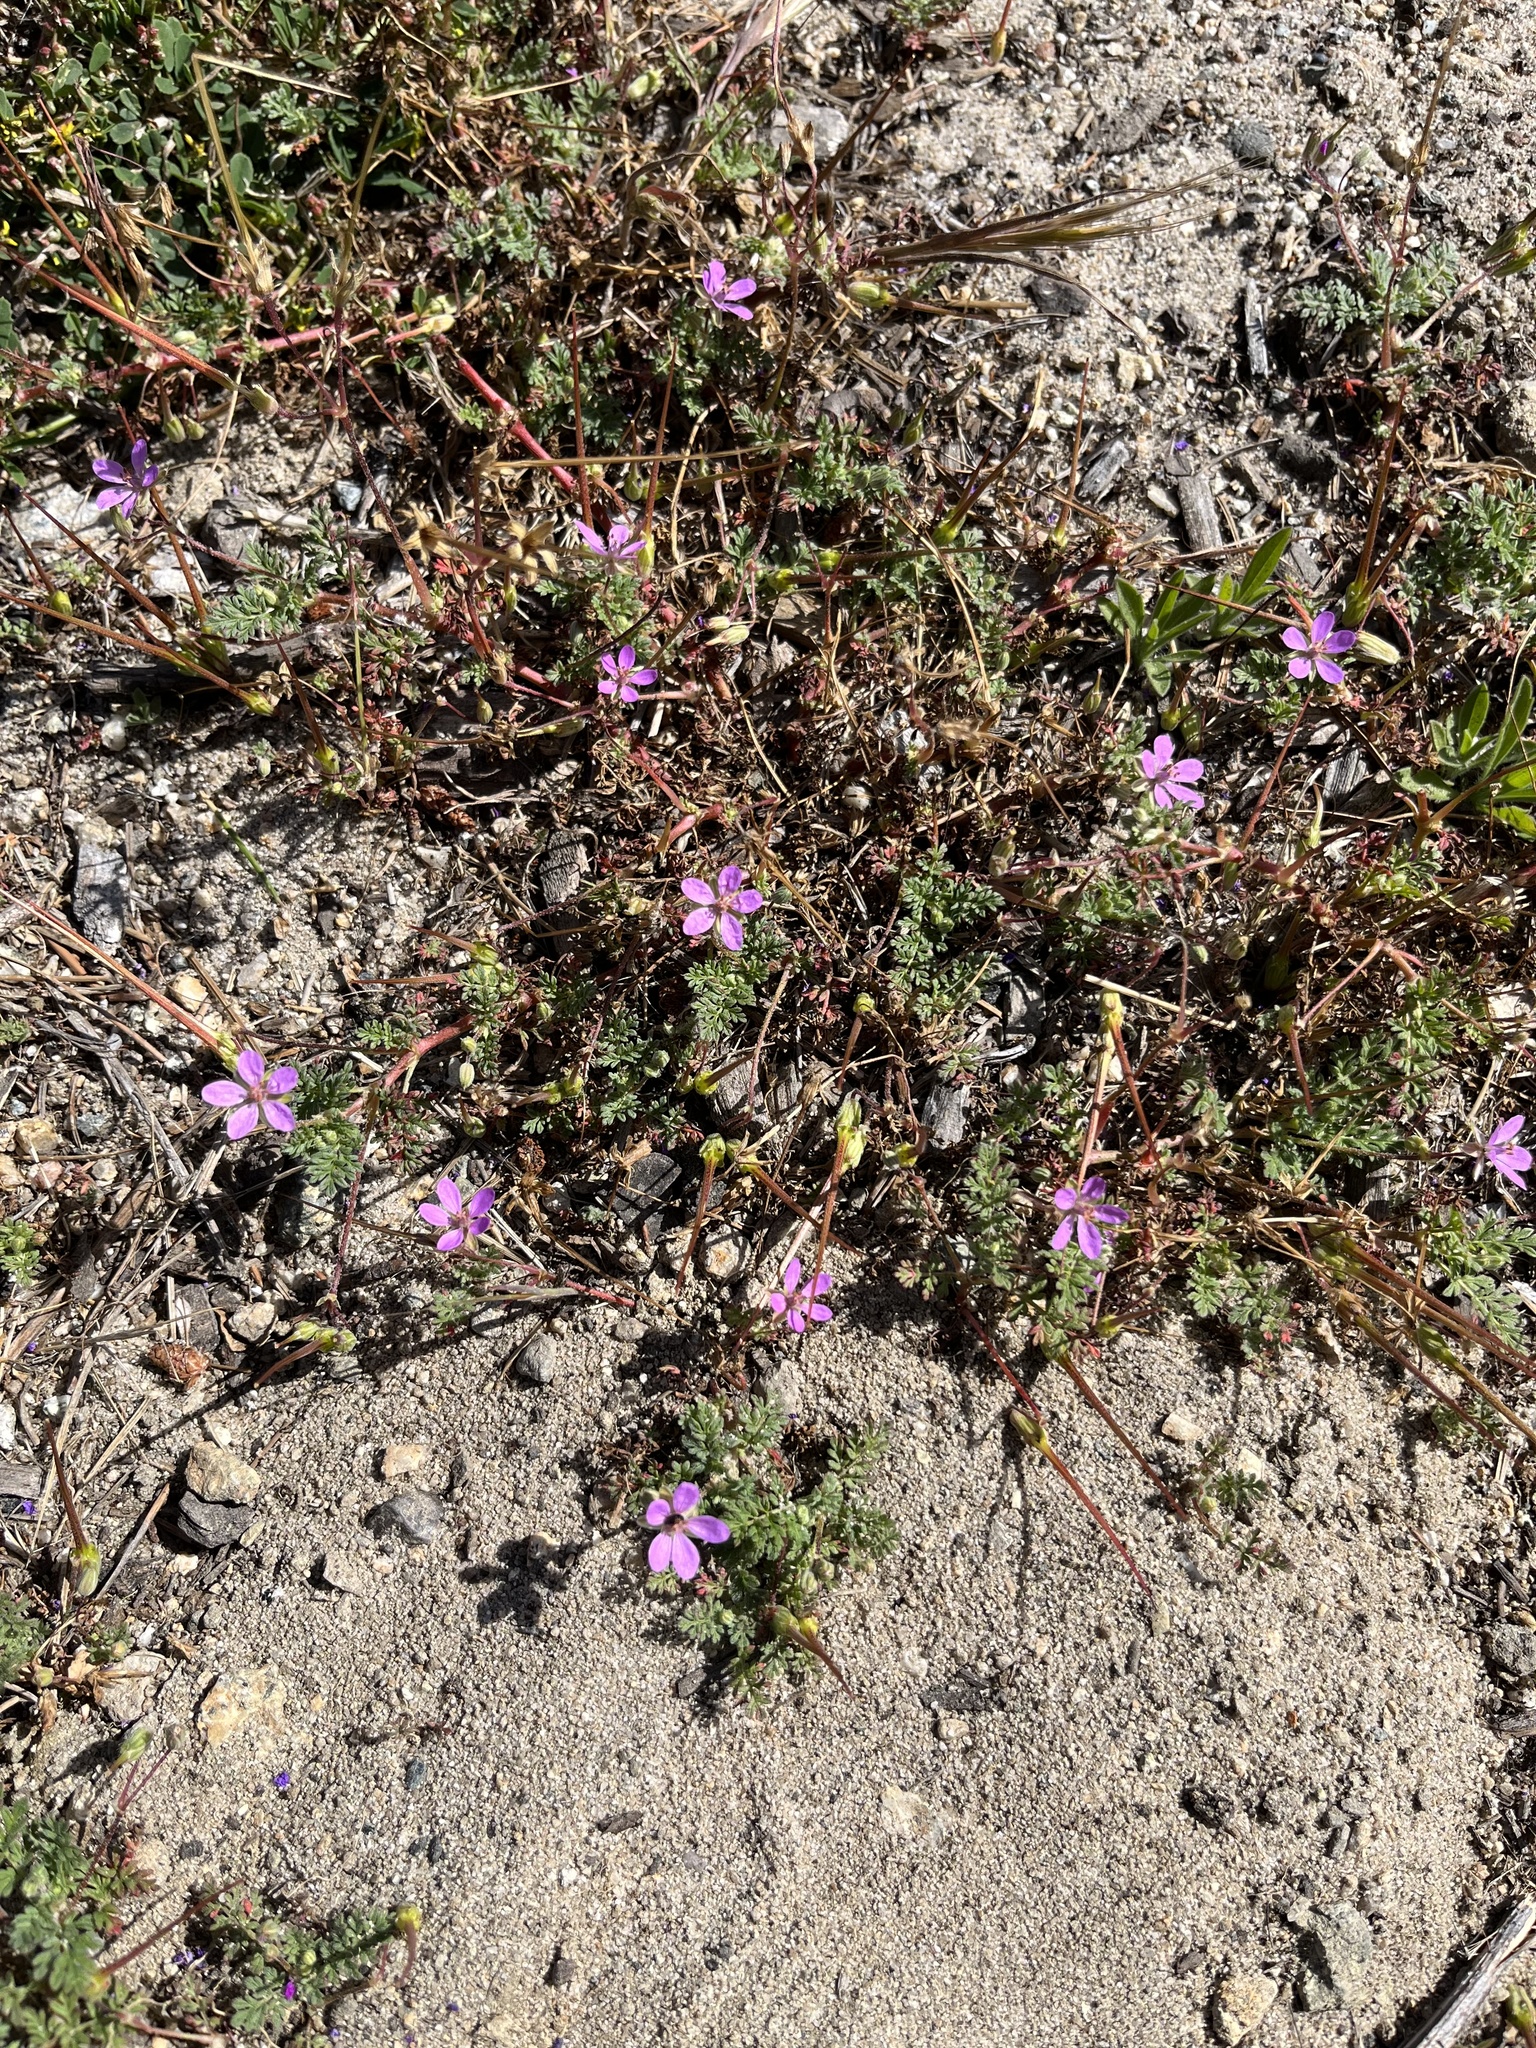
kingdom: Plantae
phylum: Tracheophyta
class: Magnoliopsida
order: Geraniales
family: Geraniaceae
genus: Erodium
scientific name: Erodium cicutarium
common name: Common stork's-bill
